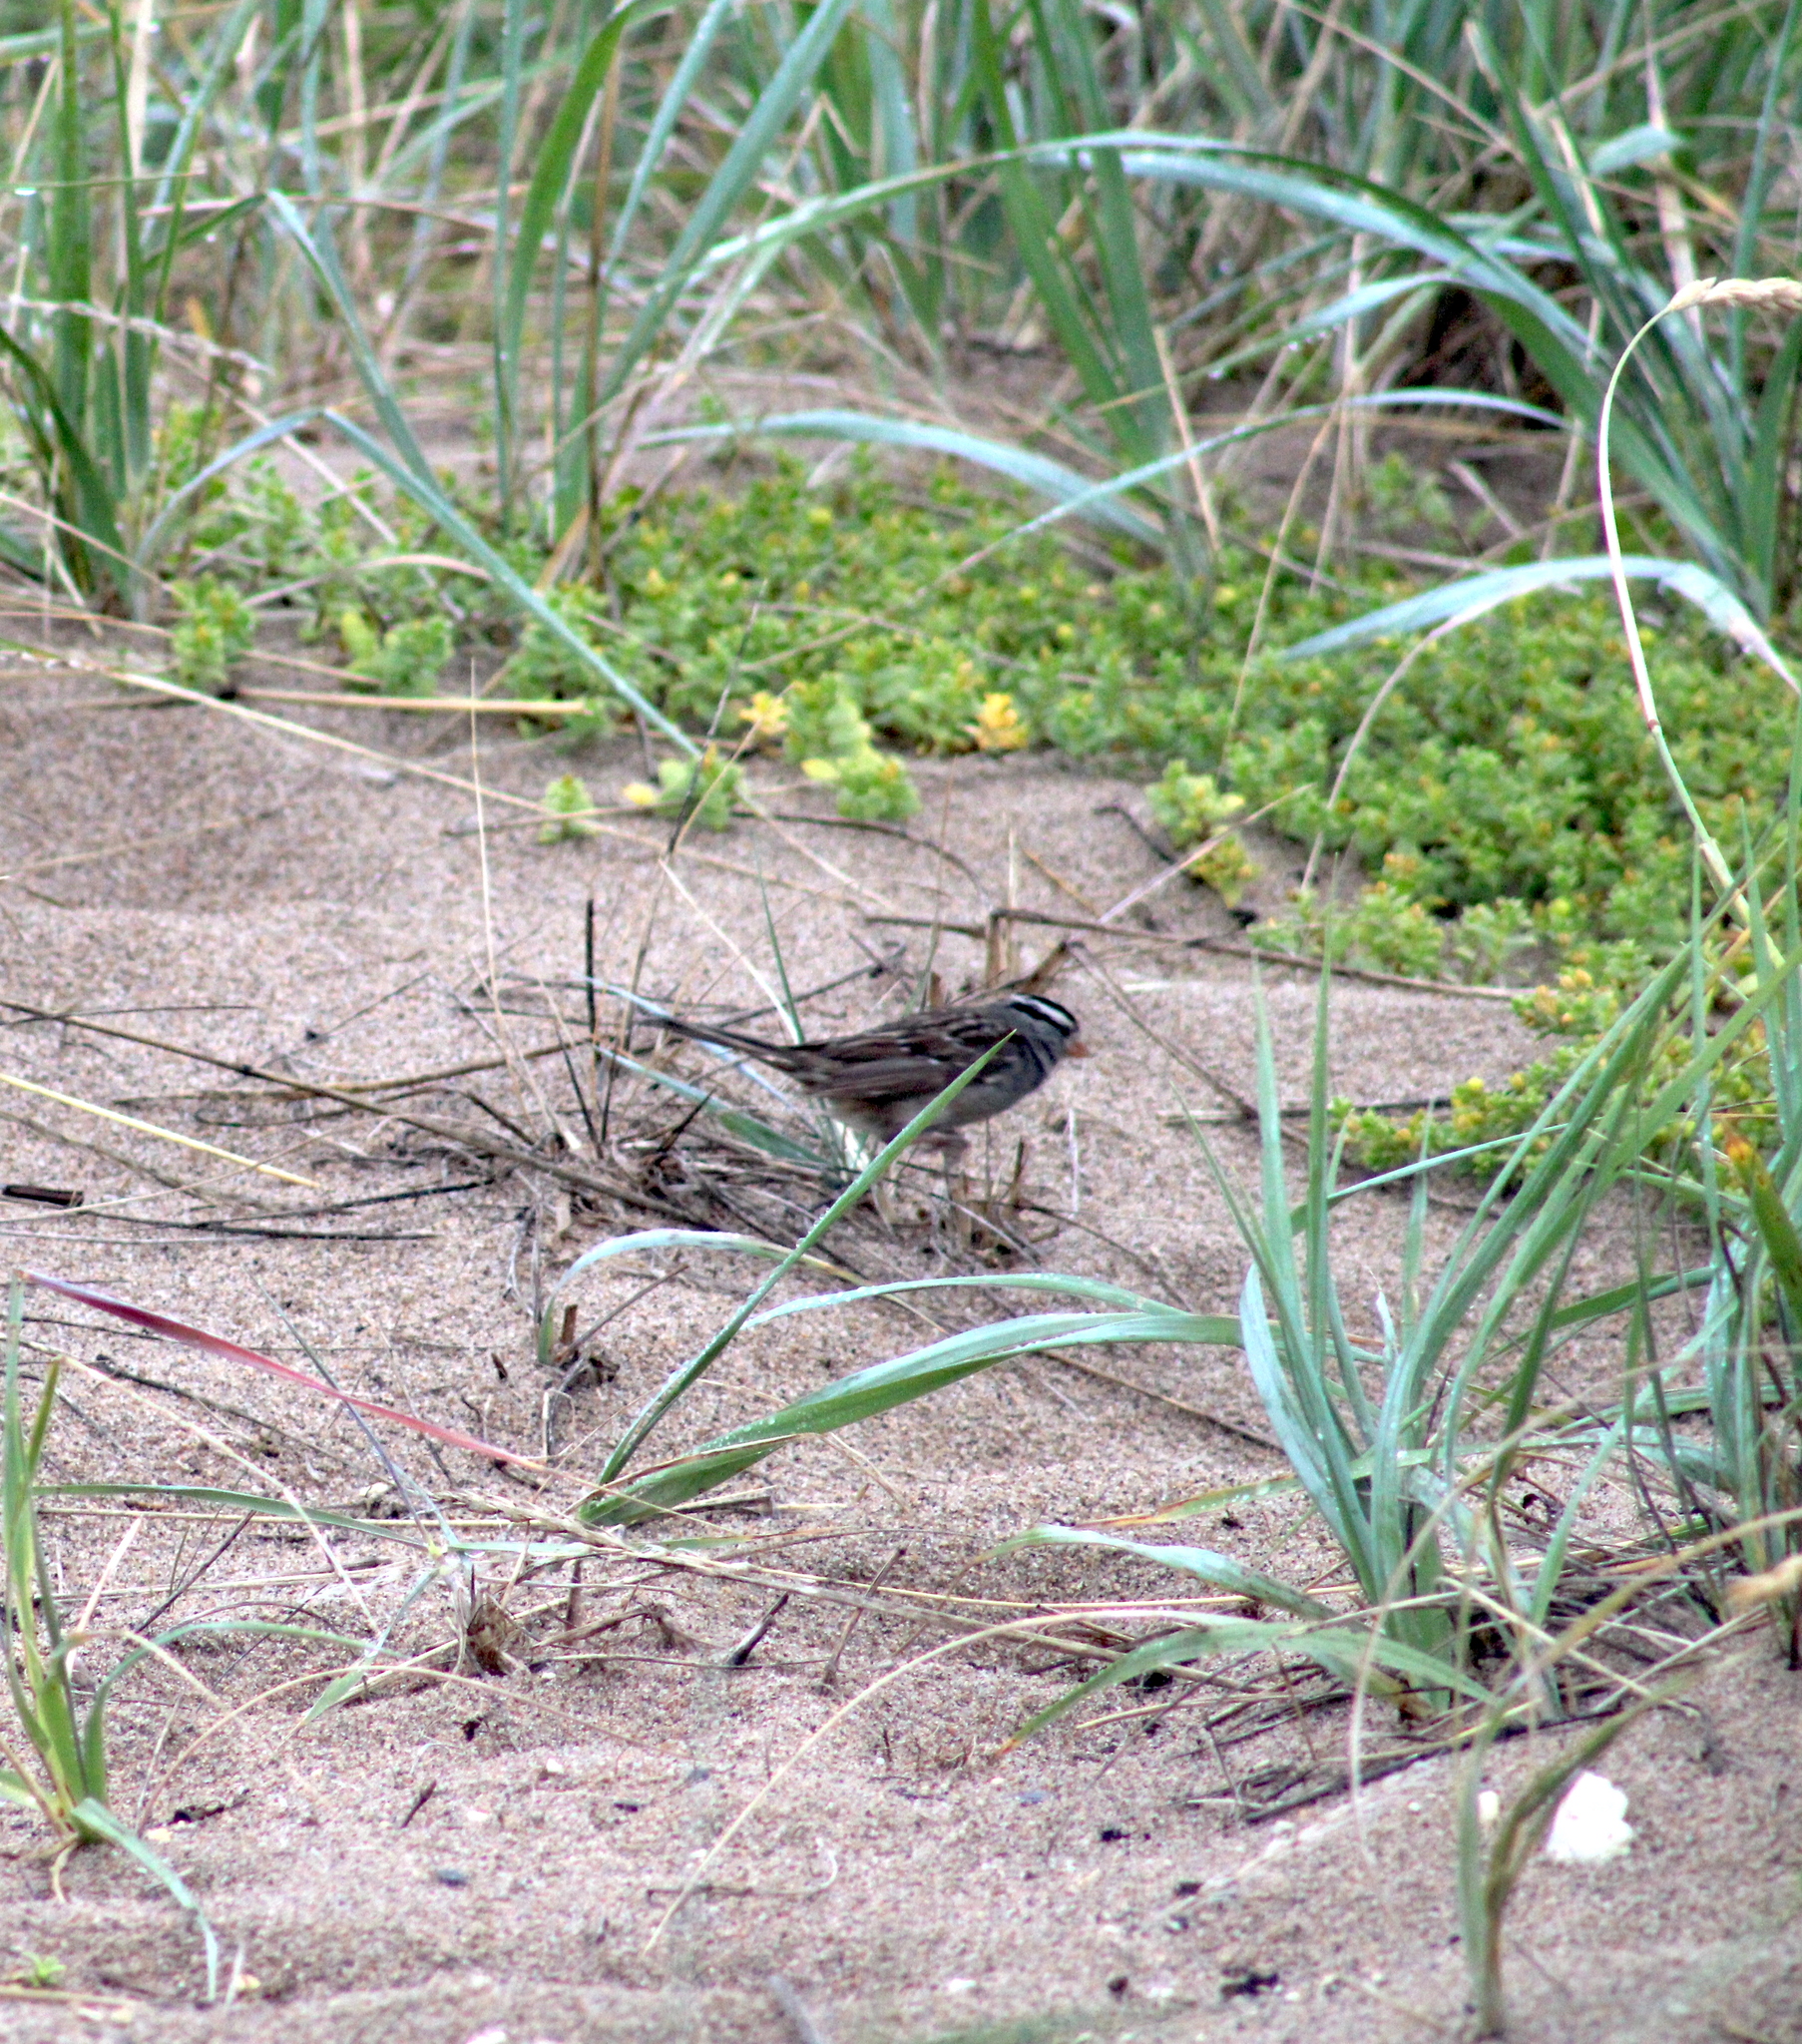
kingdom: Animalia
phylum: Chordata
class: Aves
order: Passeriformes
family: Passerellidae
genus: Zonotrichia
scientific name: Zonotrichia leucophrys
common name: White-crowned sparrow
